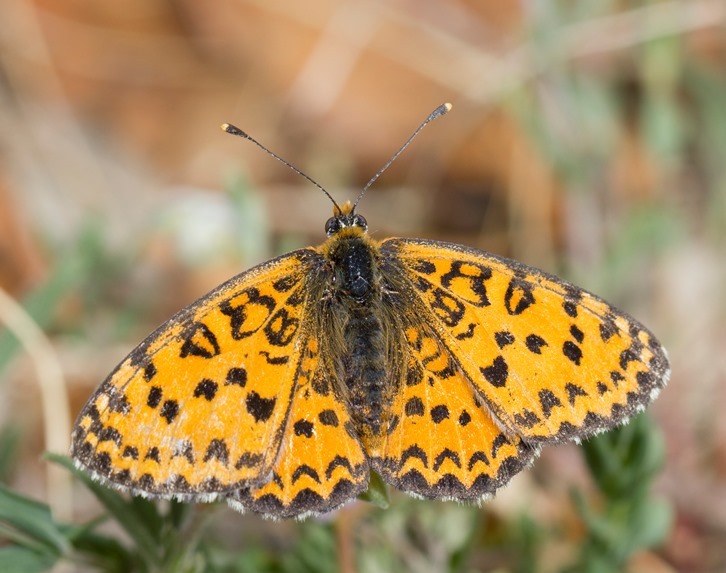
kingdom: Animalia
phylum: Arthropoda
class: Insecta
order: Lepidoptera
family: Nymphalidae
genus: Melitaea
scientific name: Melitaea trivia
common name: Lesser spotted fritillary
